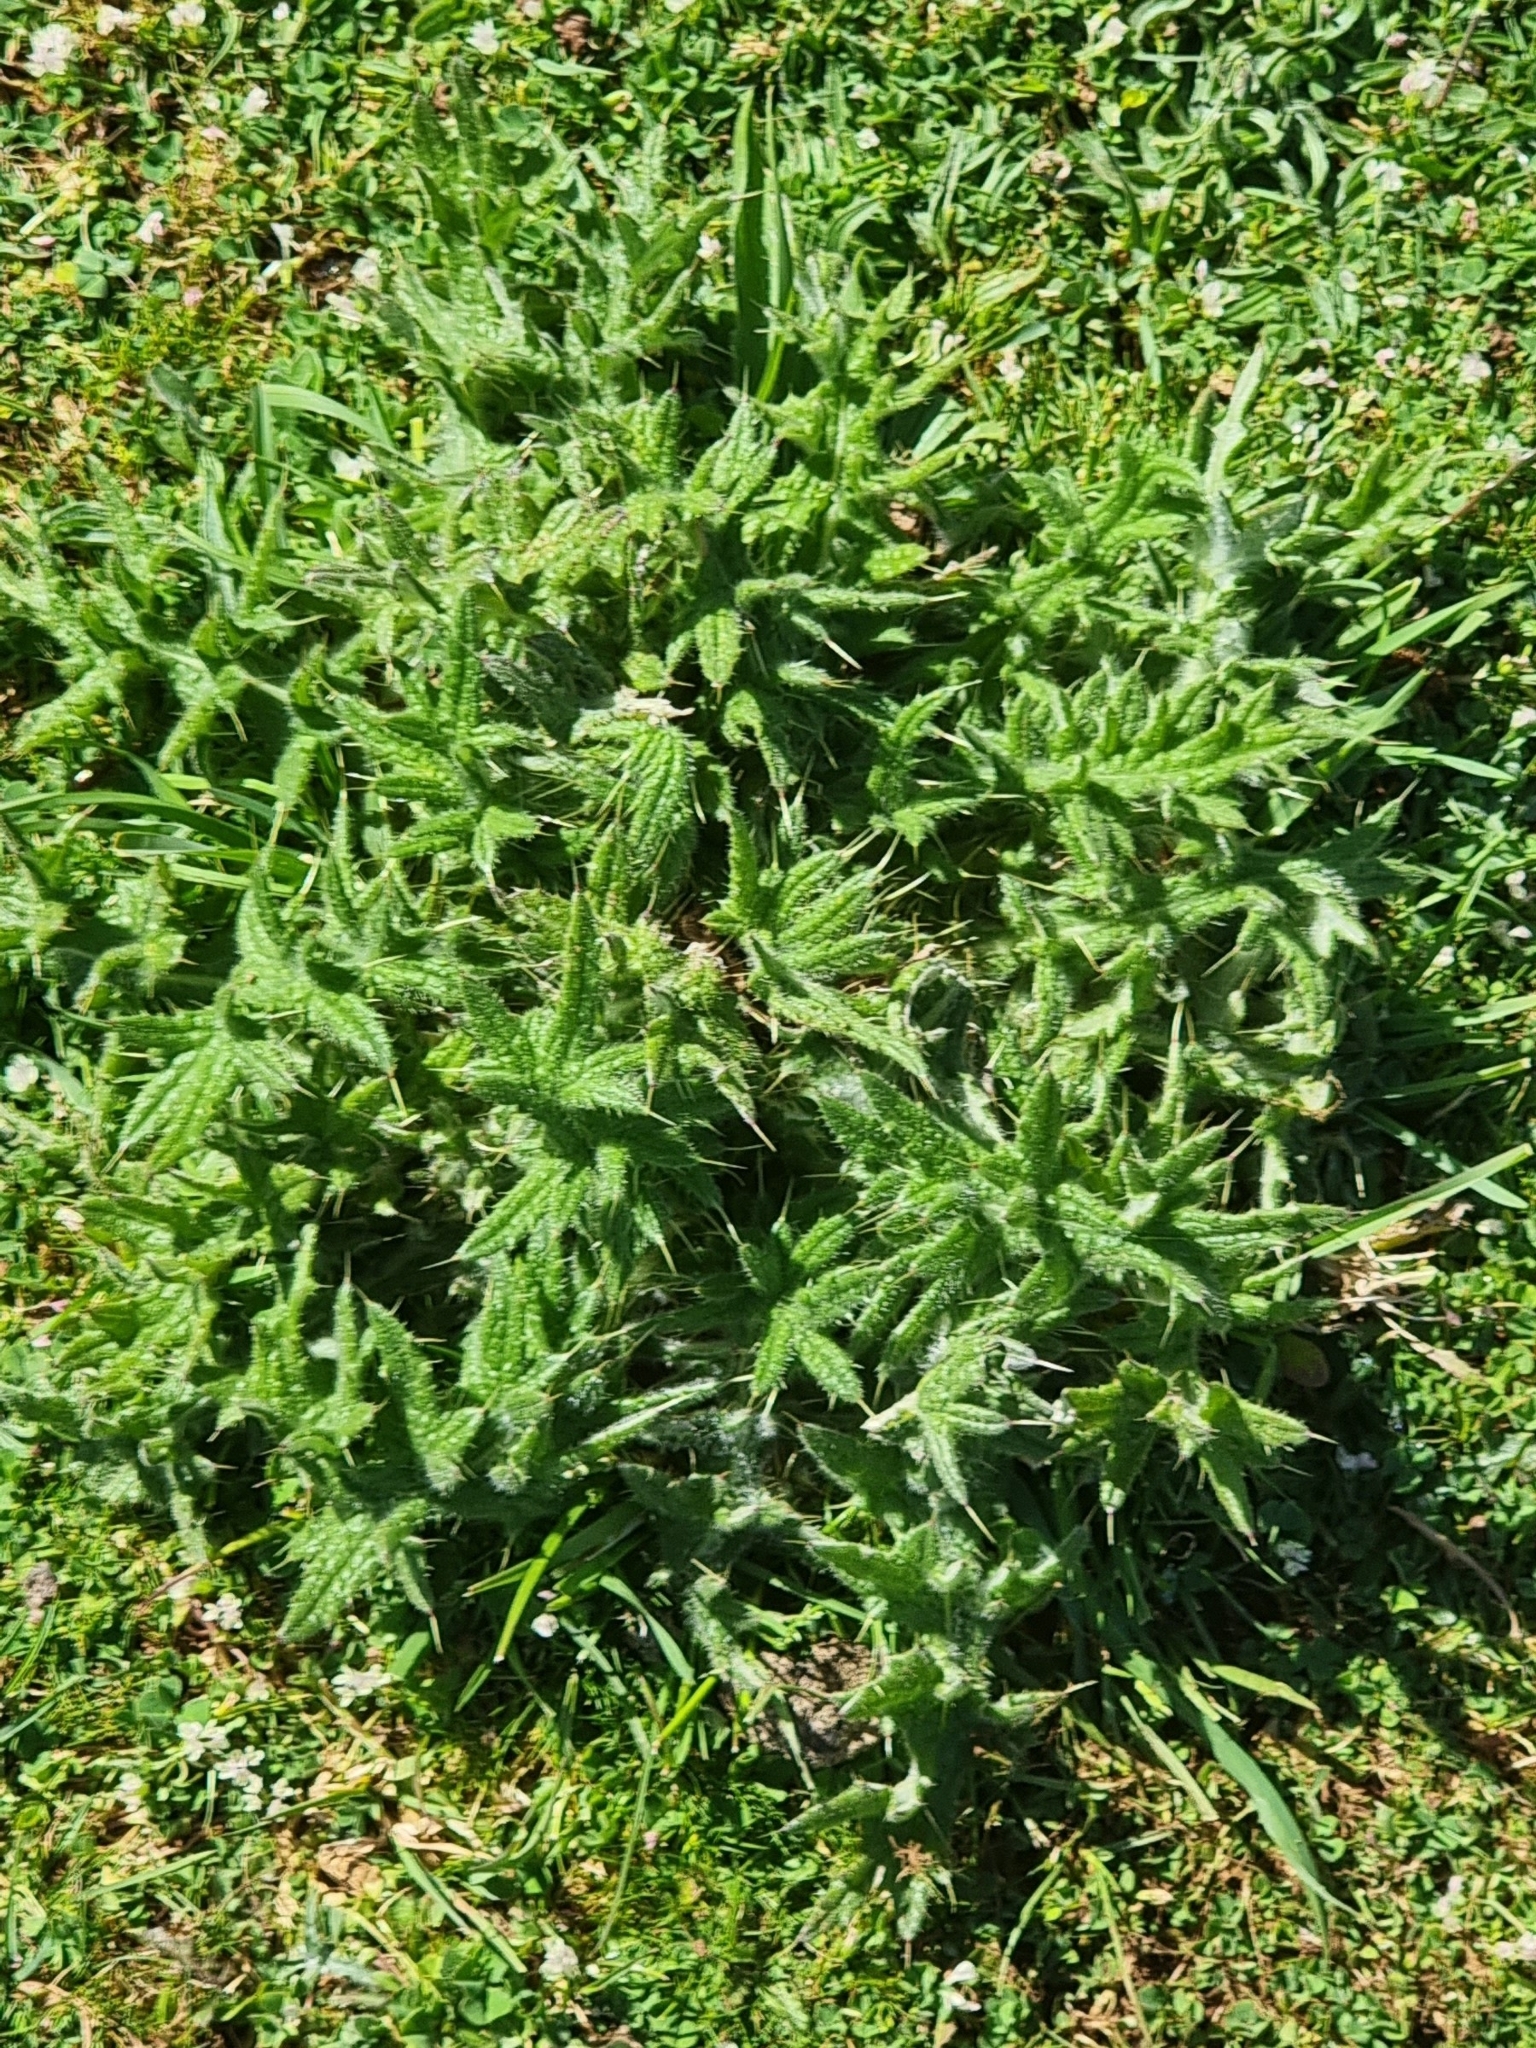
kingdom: Plantae
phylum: Tracheophyta
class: Magnoliopsida
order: Asterales
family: Asteraceae
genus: Cirsium
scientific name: Cirsium vulgare
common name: Bull thistle
